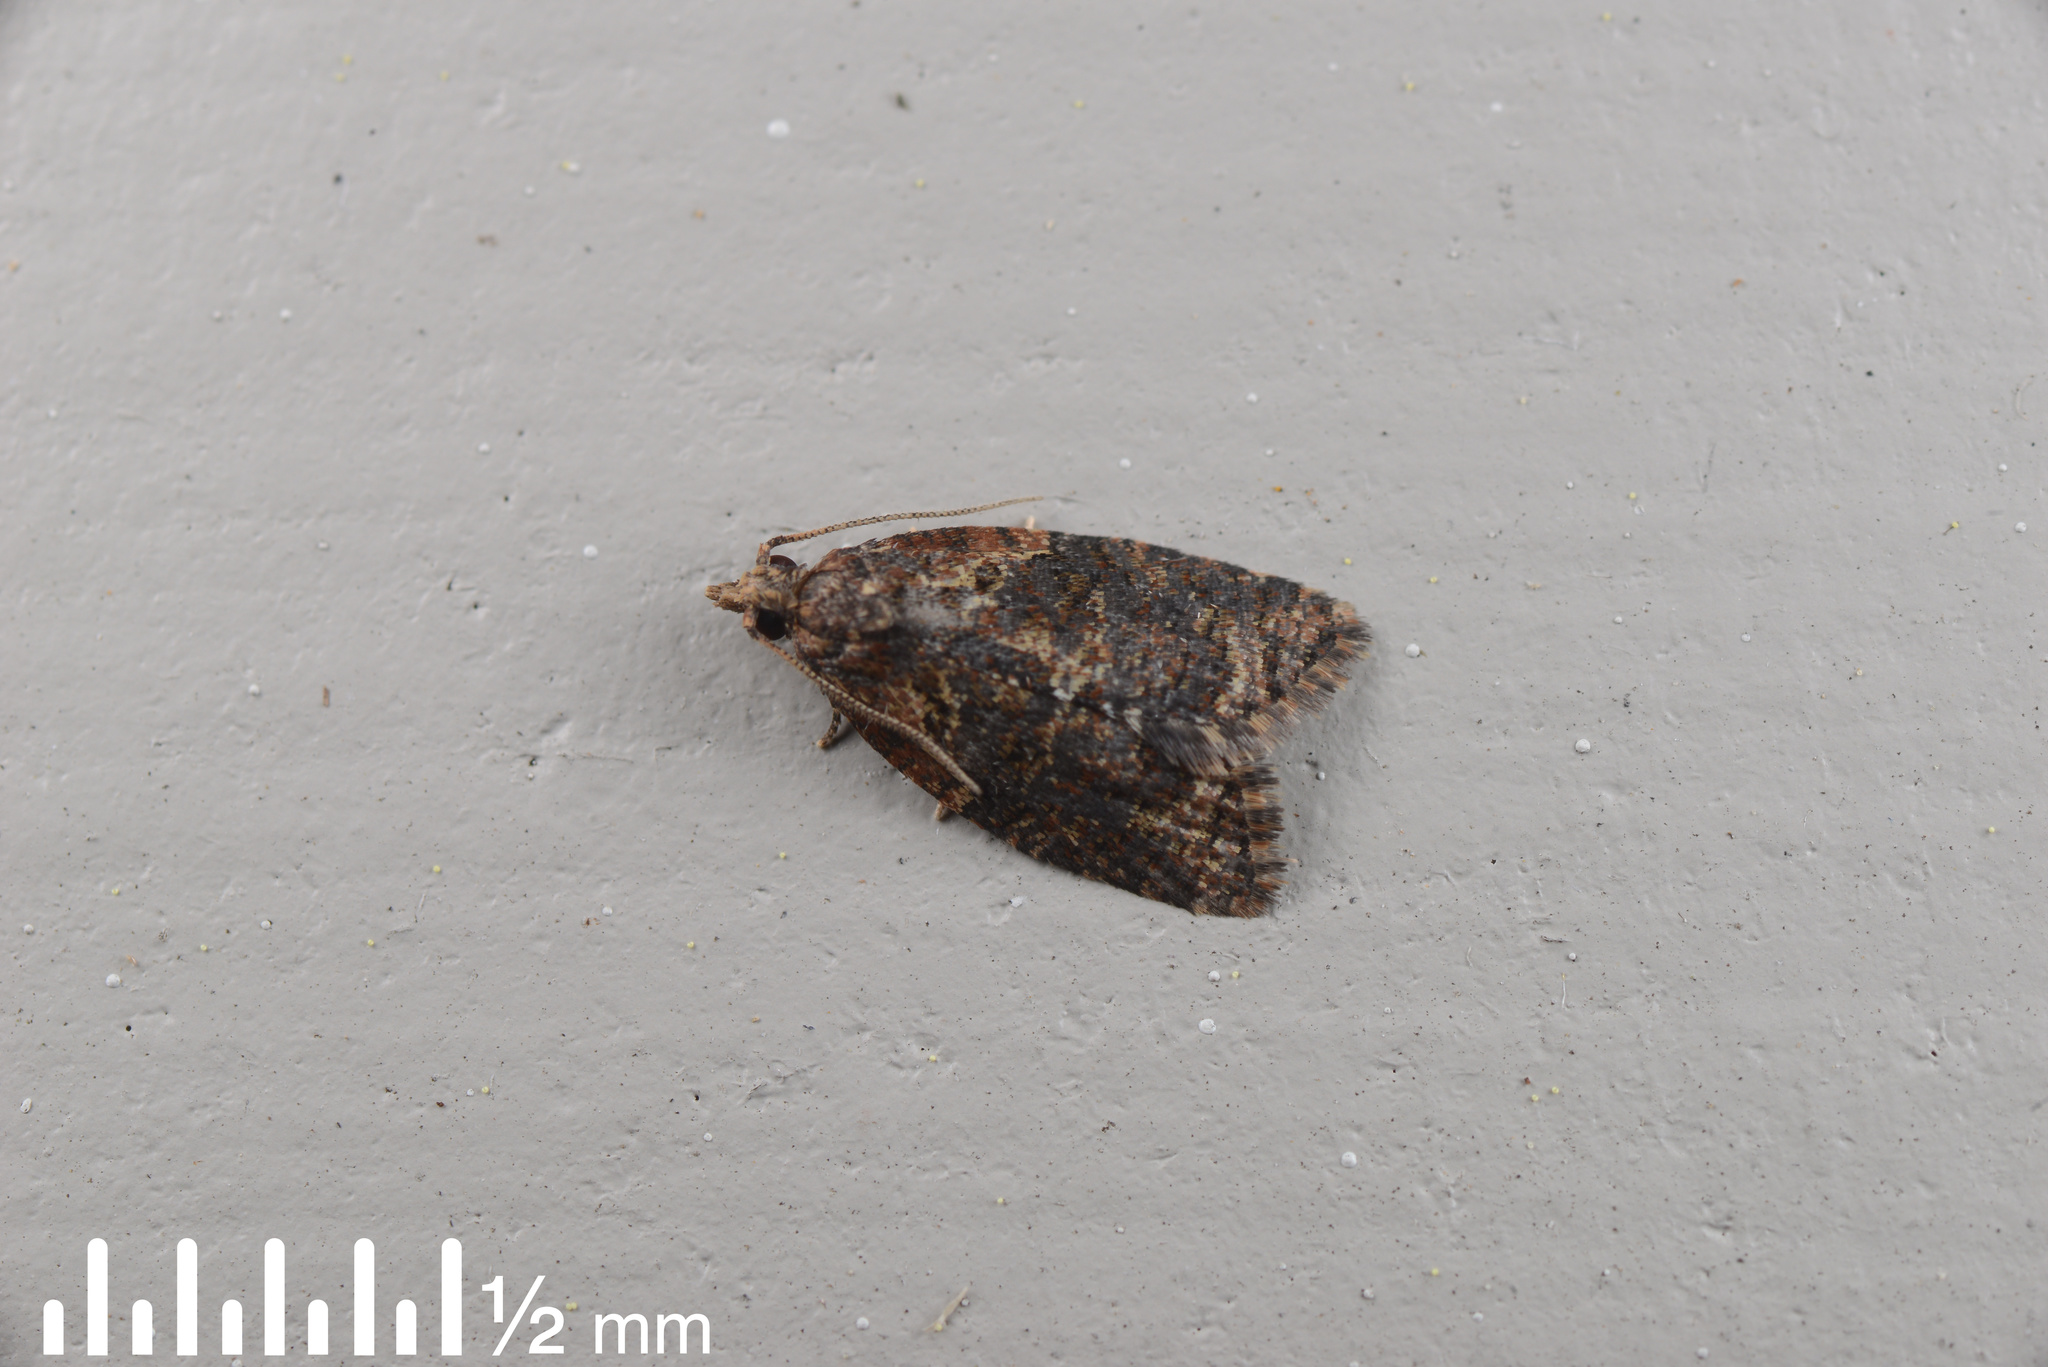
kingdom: Animalia
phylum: Arthropoda
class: Insecta
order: Lepidoptera
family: Tortricidae
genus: Capua
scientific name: Capua intractana
